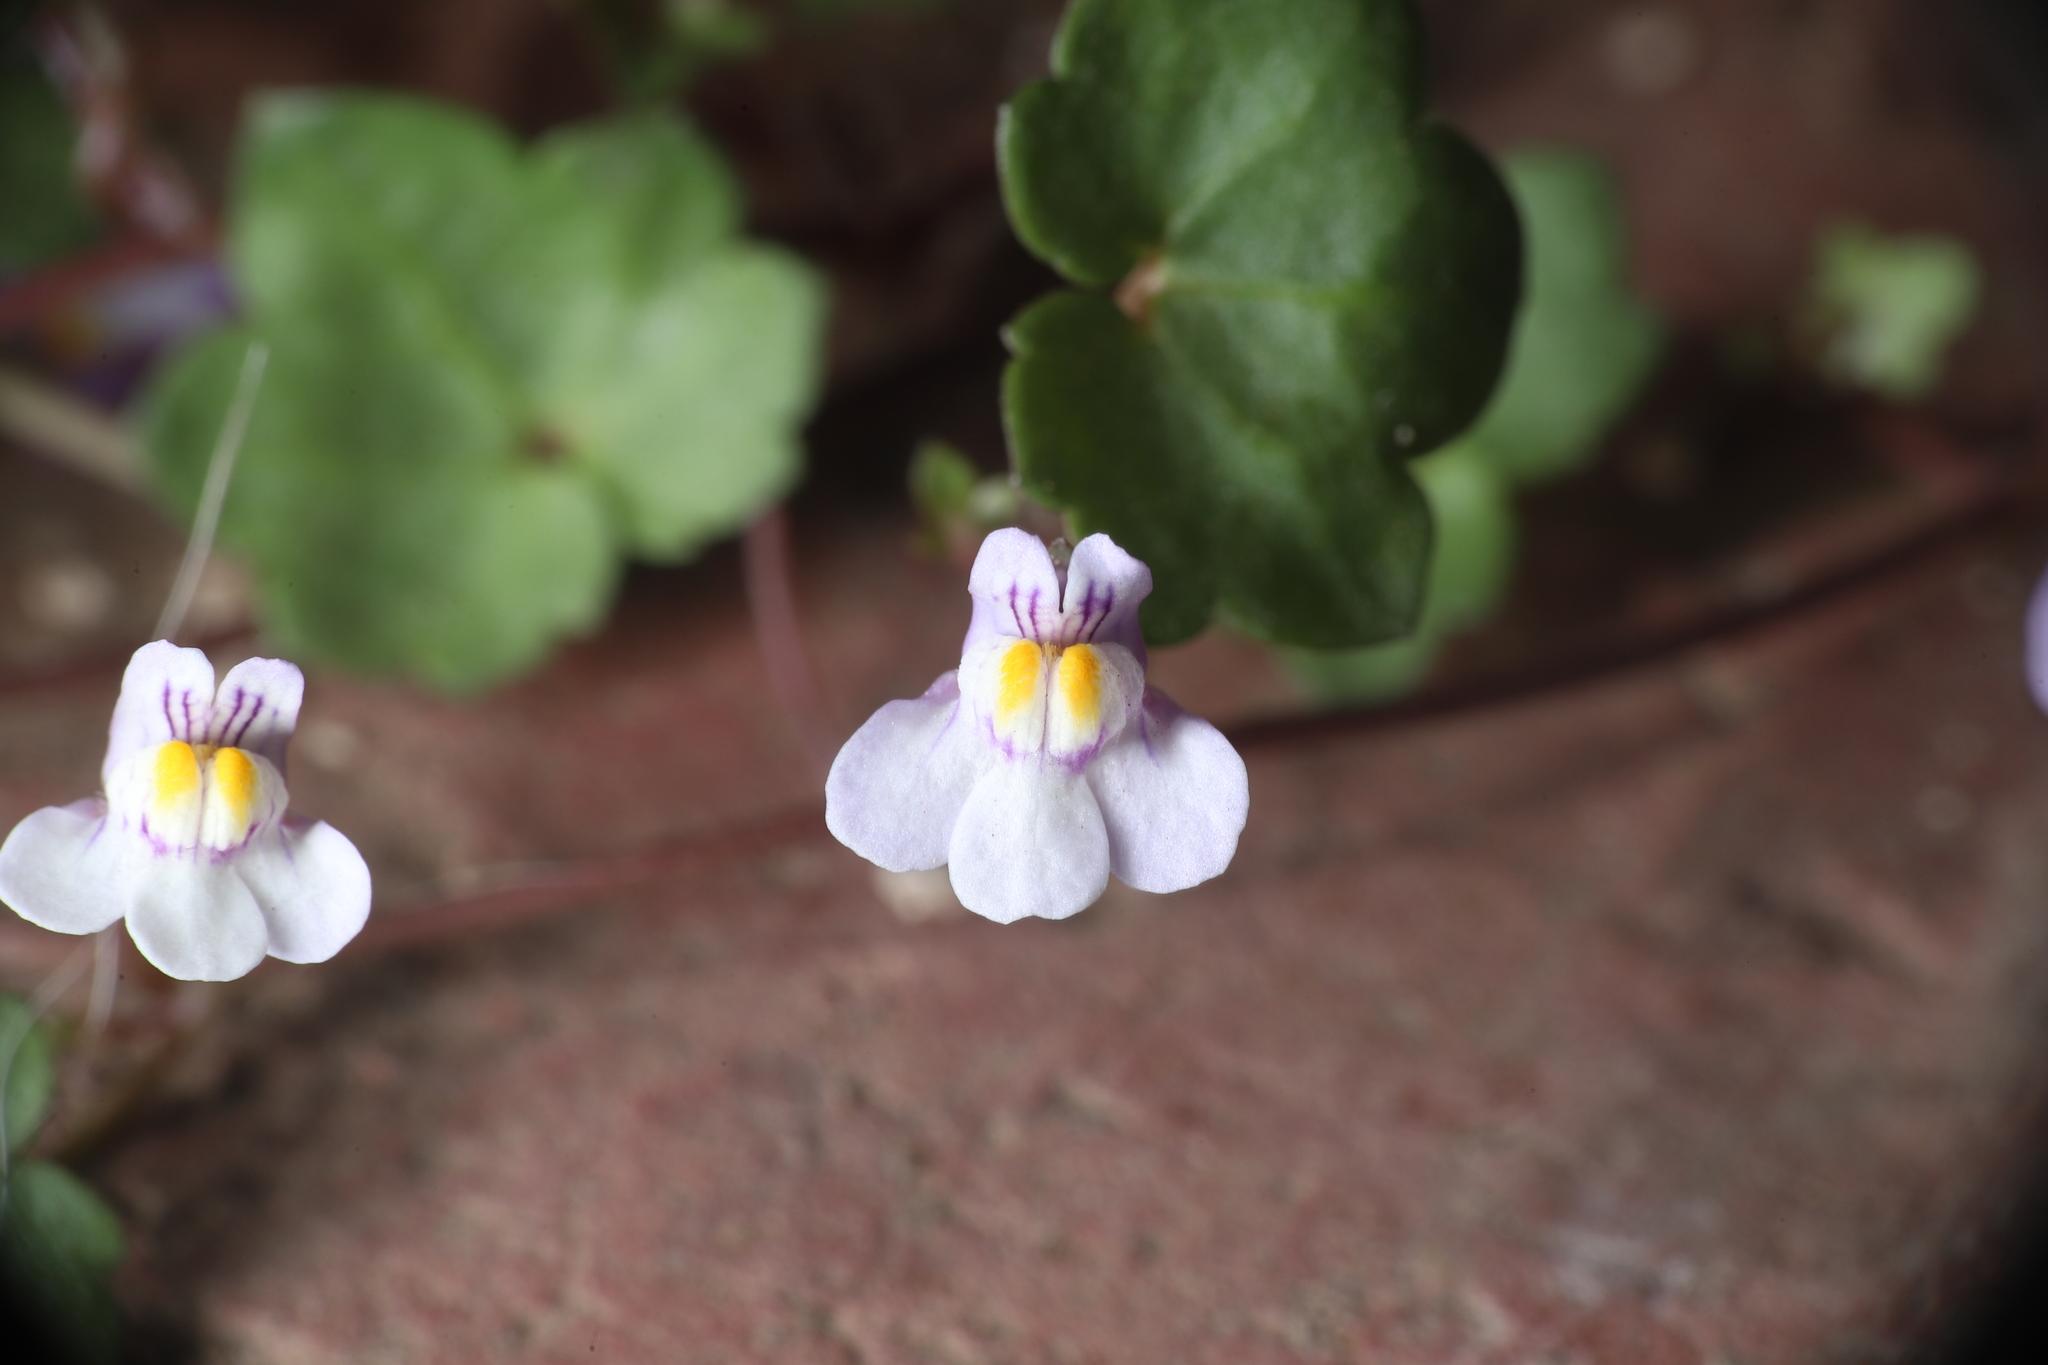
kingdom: Plantae
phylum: Tracheophyta
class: Magnoliopsida
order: Lamiales
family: Plantaginaceae
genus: Cymbalaria
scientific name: Cymbalaria muralis
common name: Ivy-leaved toadflax
